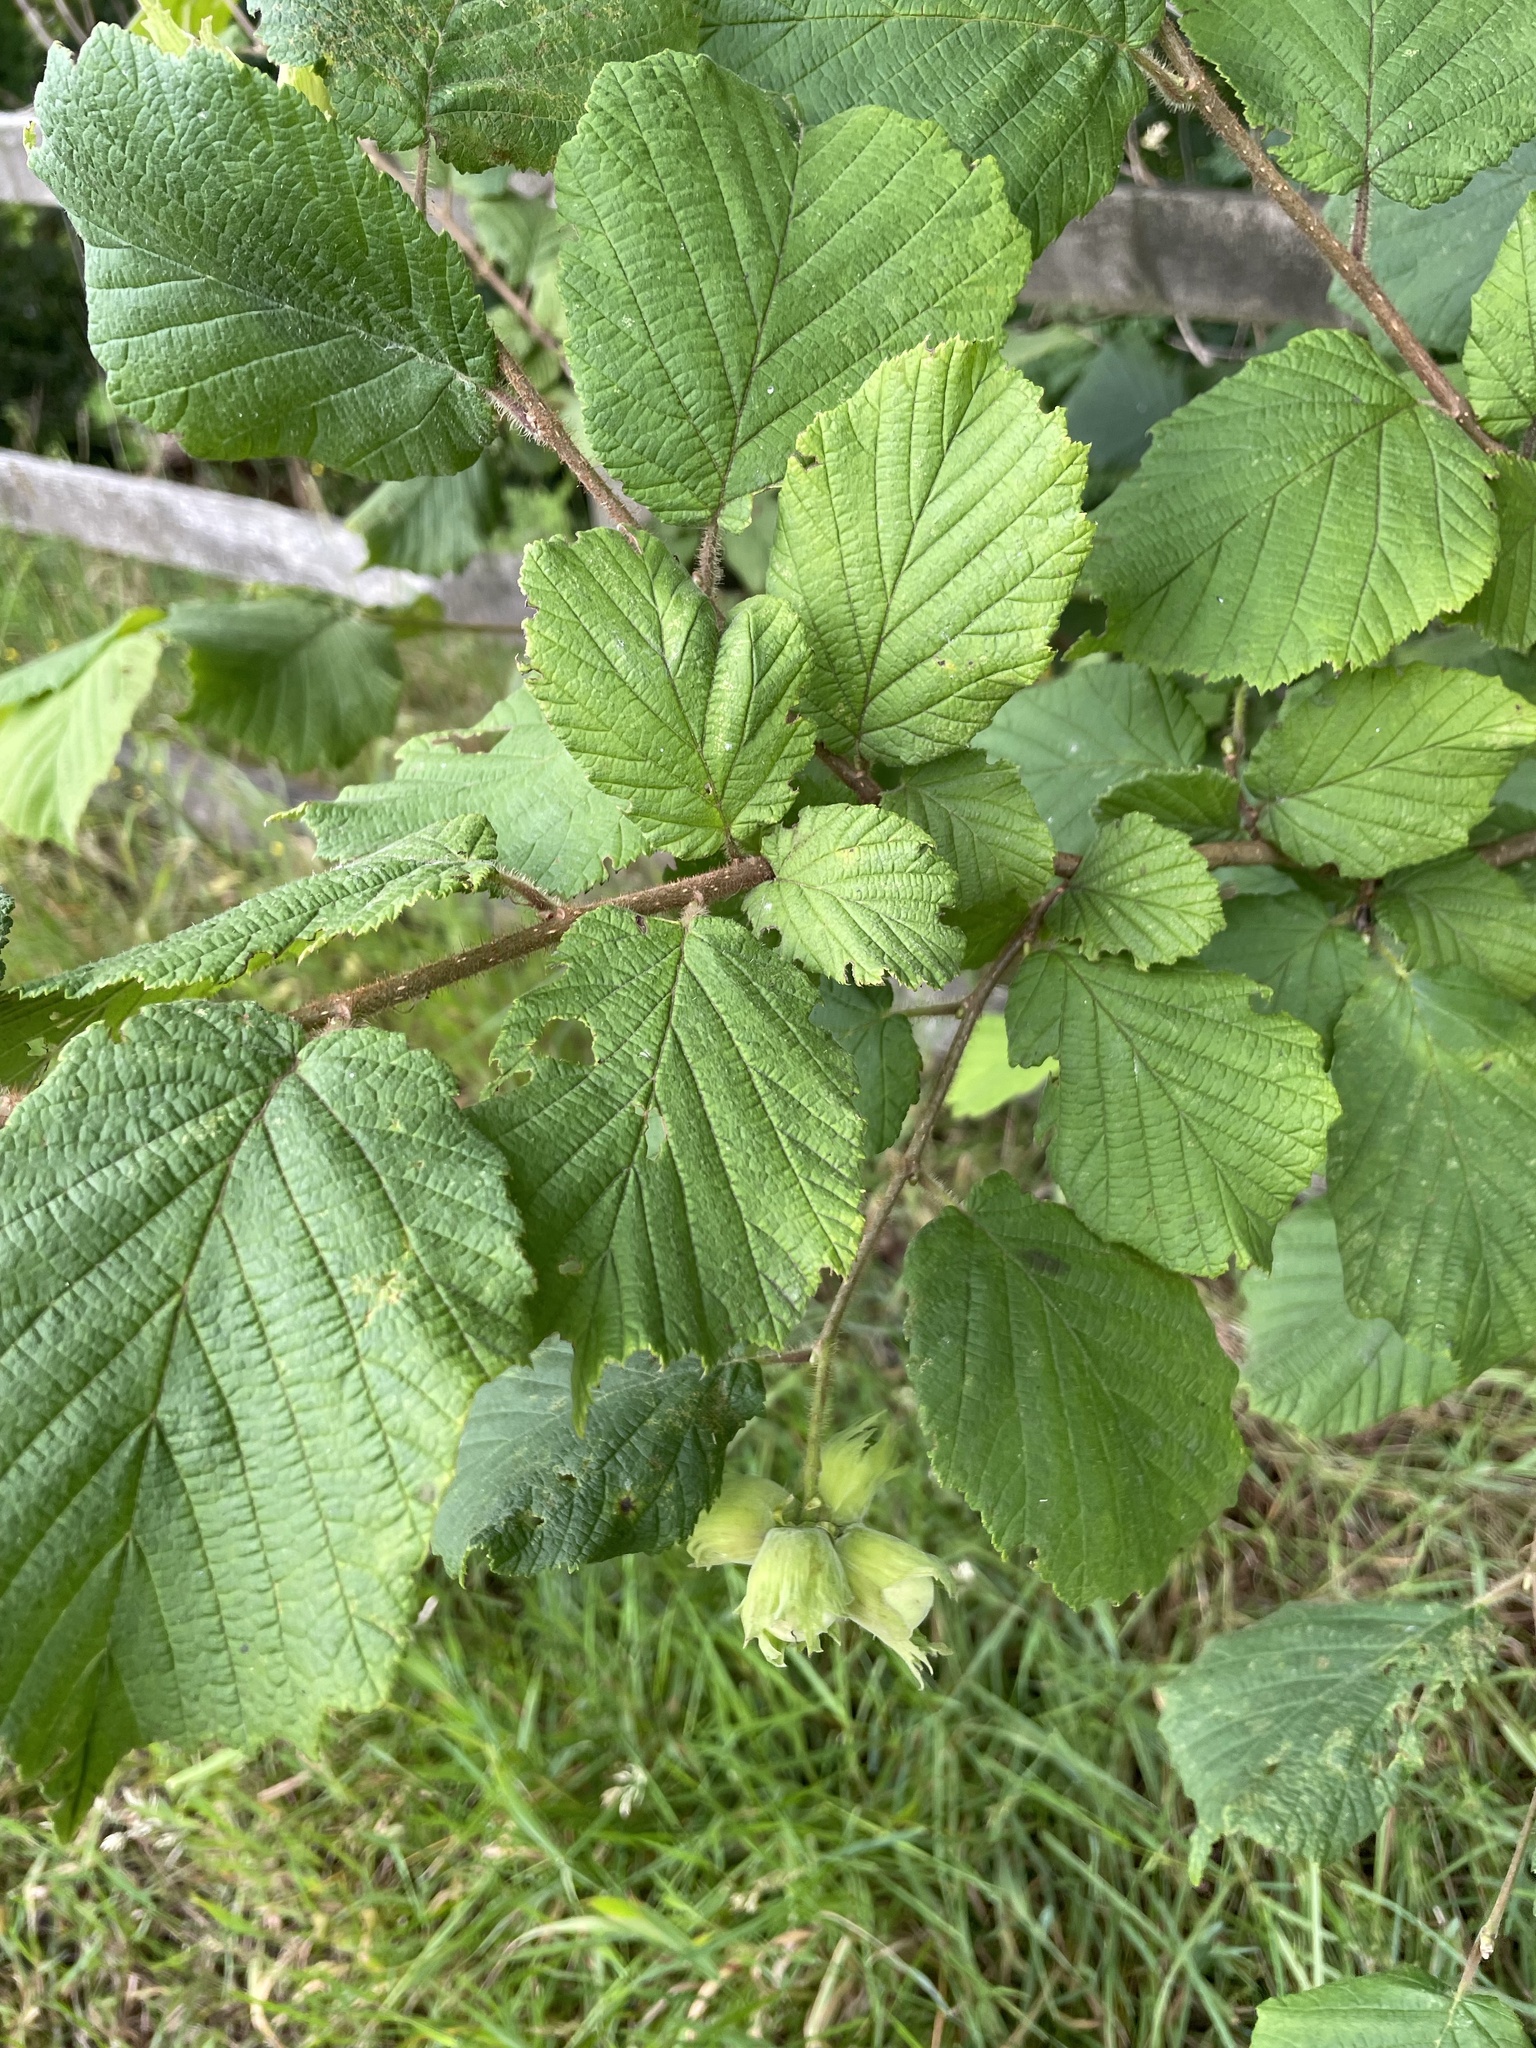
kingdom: Plantae
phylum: Tracheophyta
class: Magnoliopsida
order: Fagales
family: Betulaceae
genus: Corylus
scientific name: Corylus avellana
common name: European hazel
